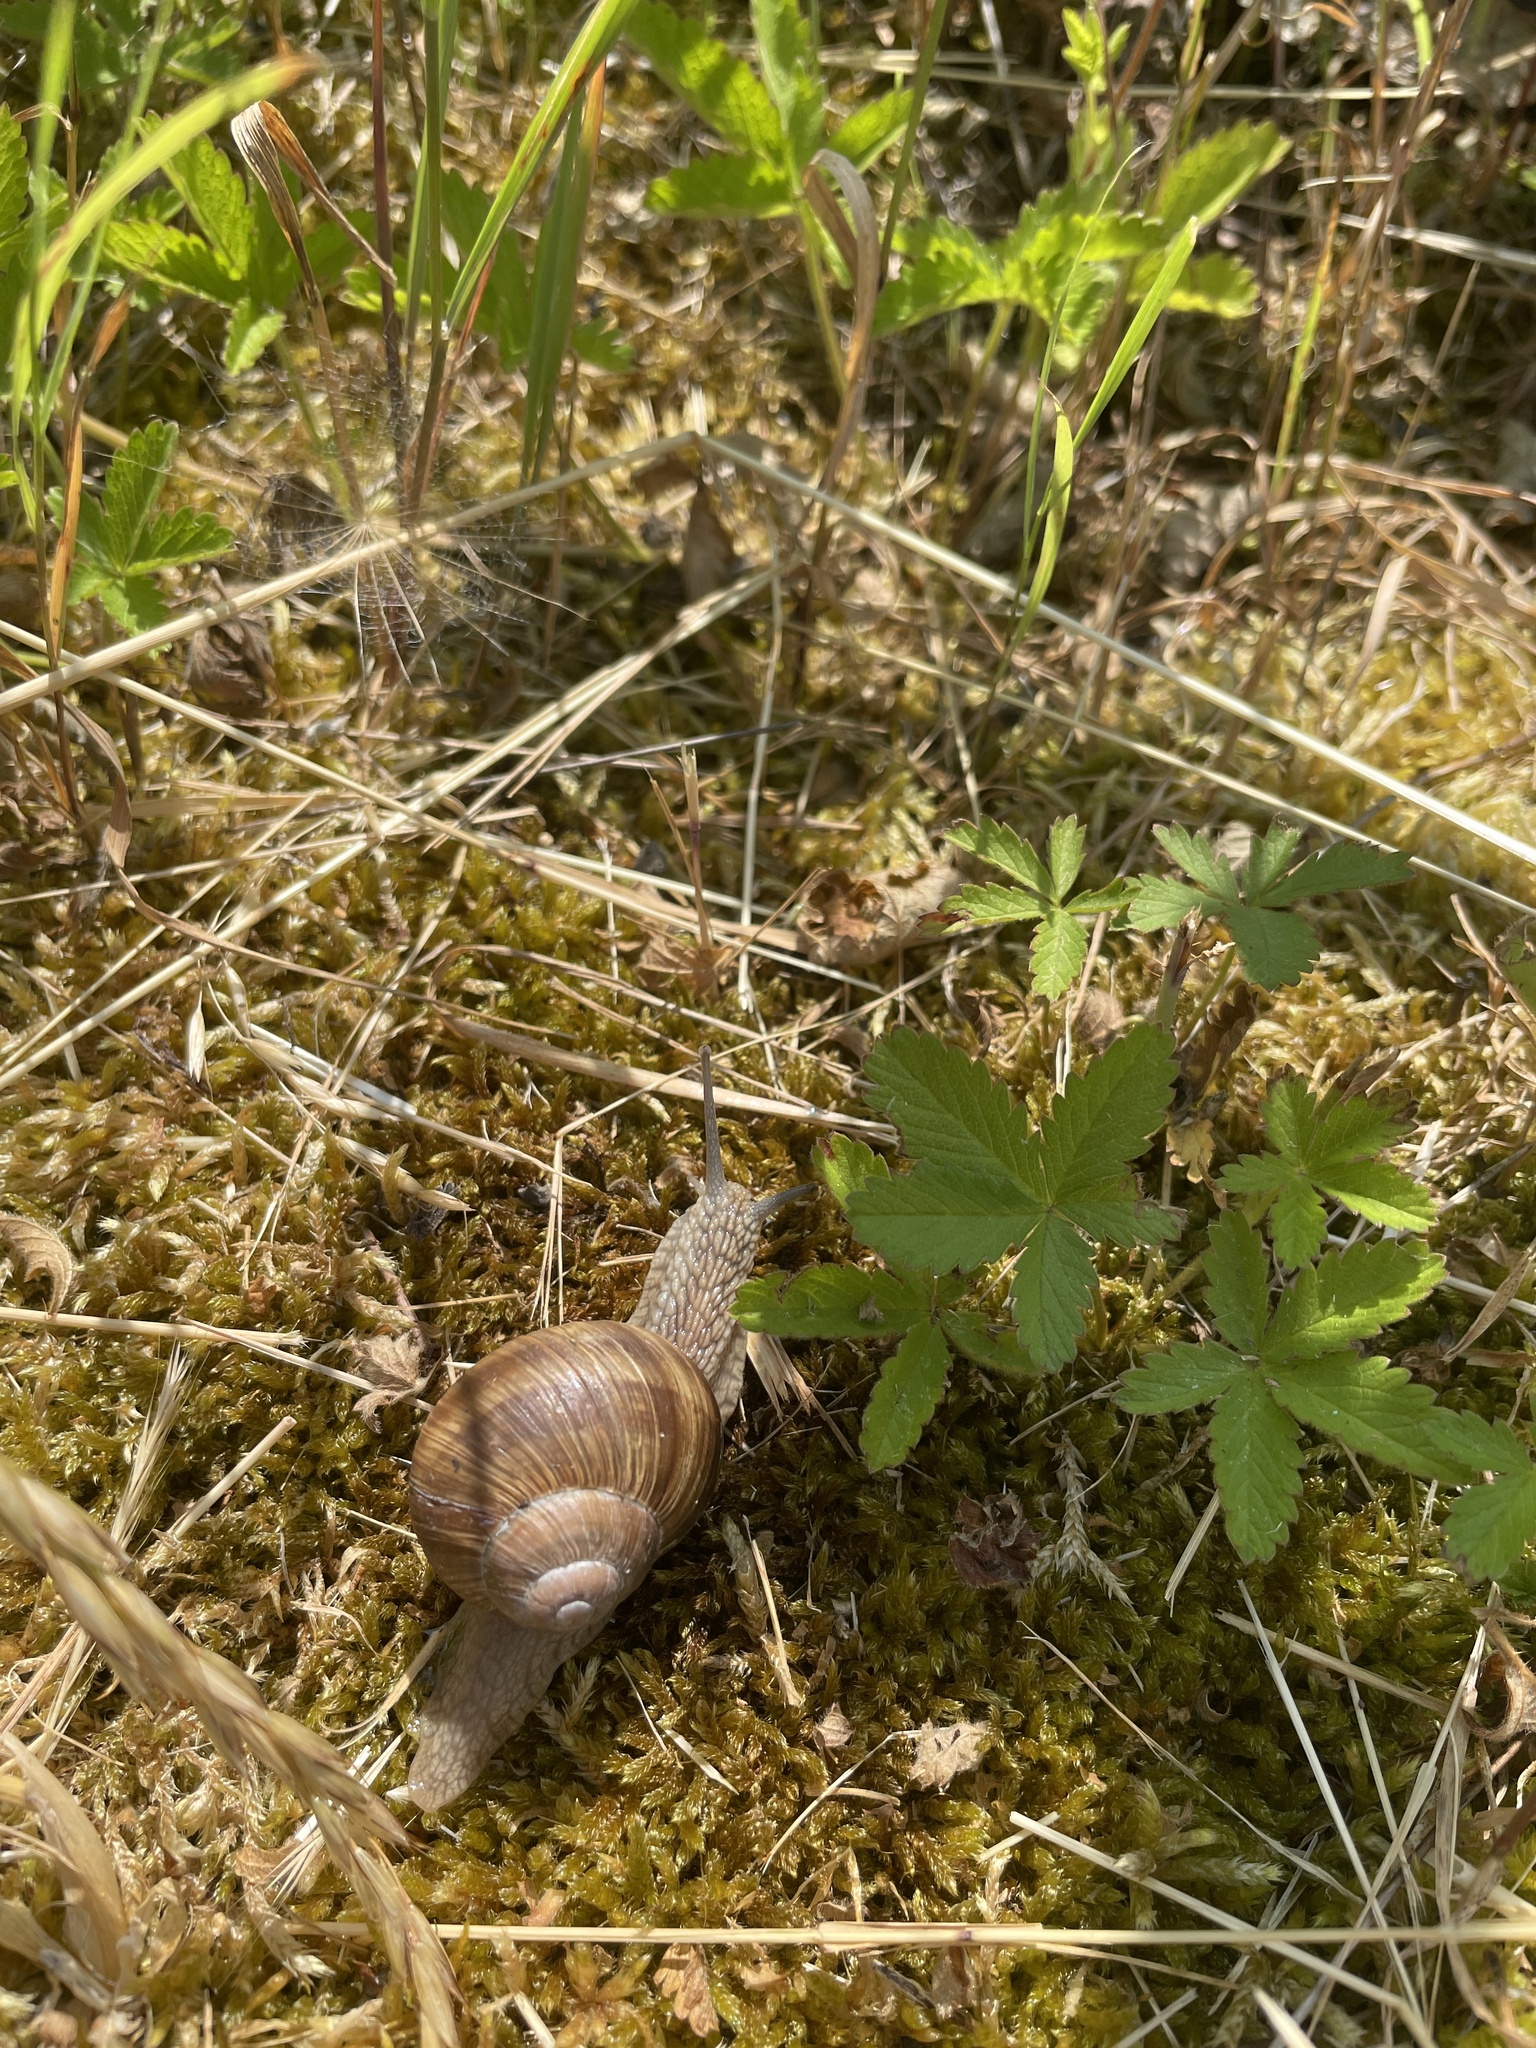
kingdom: Animalia
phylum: Mollusca
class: Gastropoda
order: Stylommatophora
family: Helicidae
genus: Helix
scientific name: Helix pomatia
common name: Roman snail
